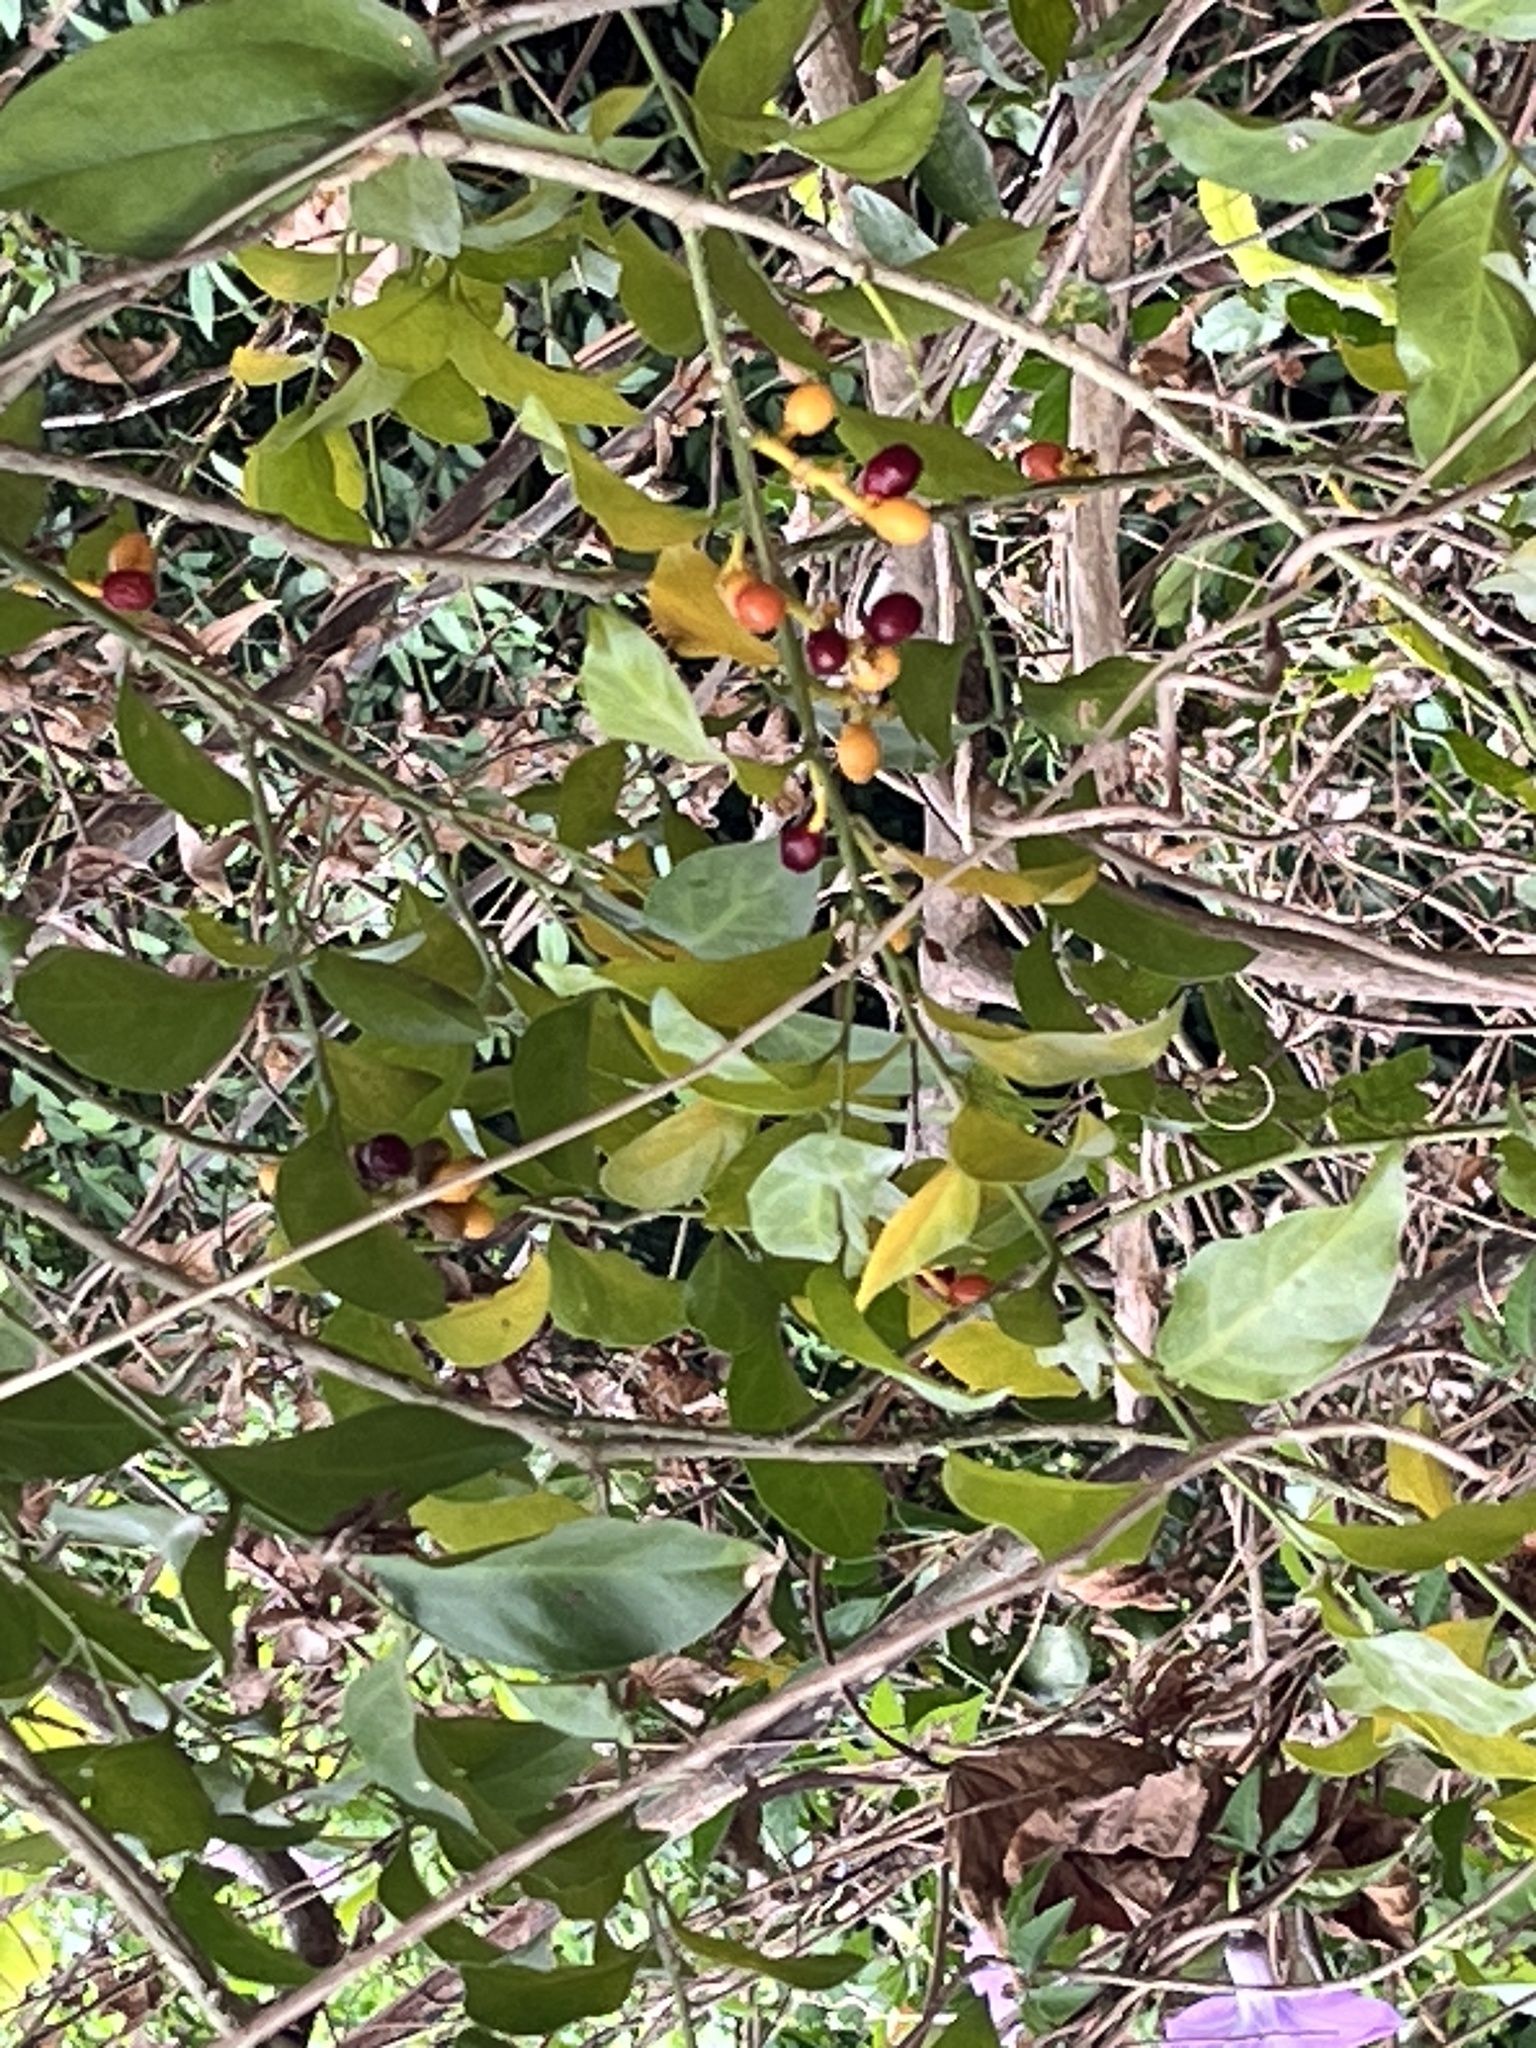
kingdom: Plantae
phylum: Tracheophyta
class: Magnoliopsida
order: Santalales
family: Opiliaceae
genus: Champereia
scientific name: Champereia manillana
